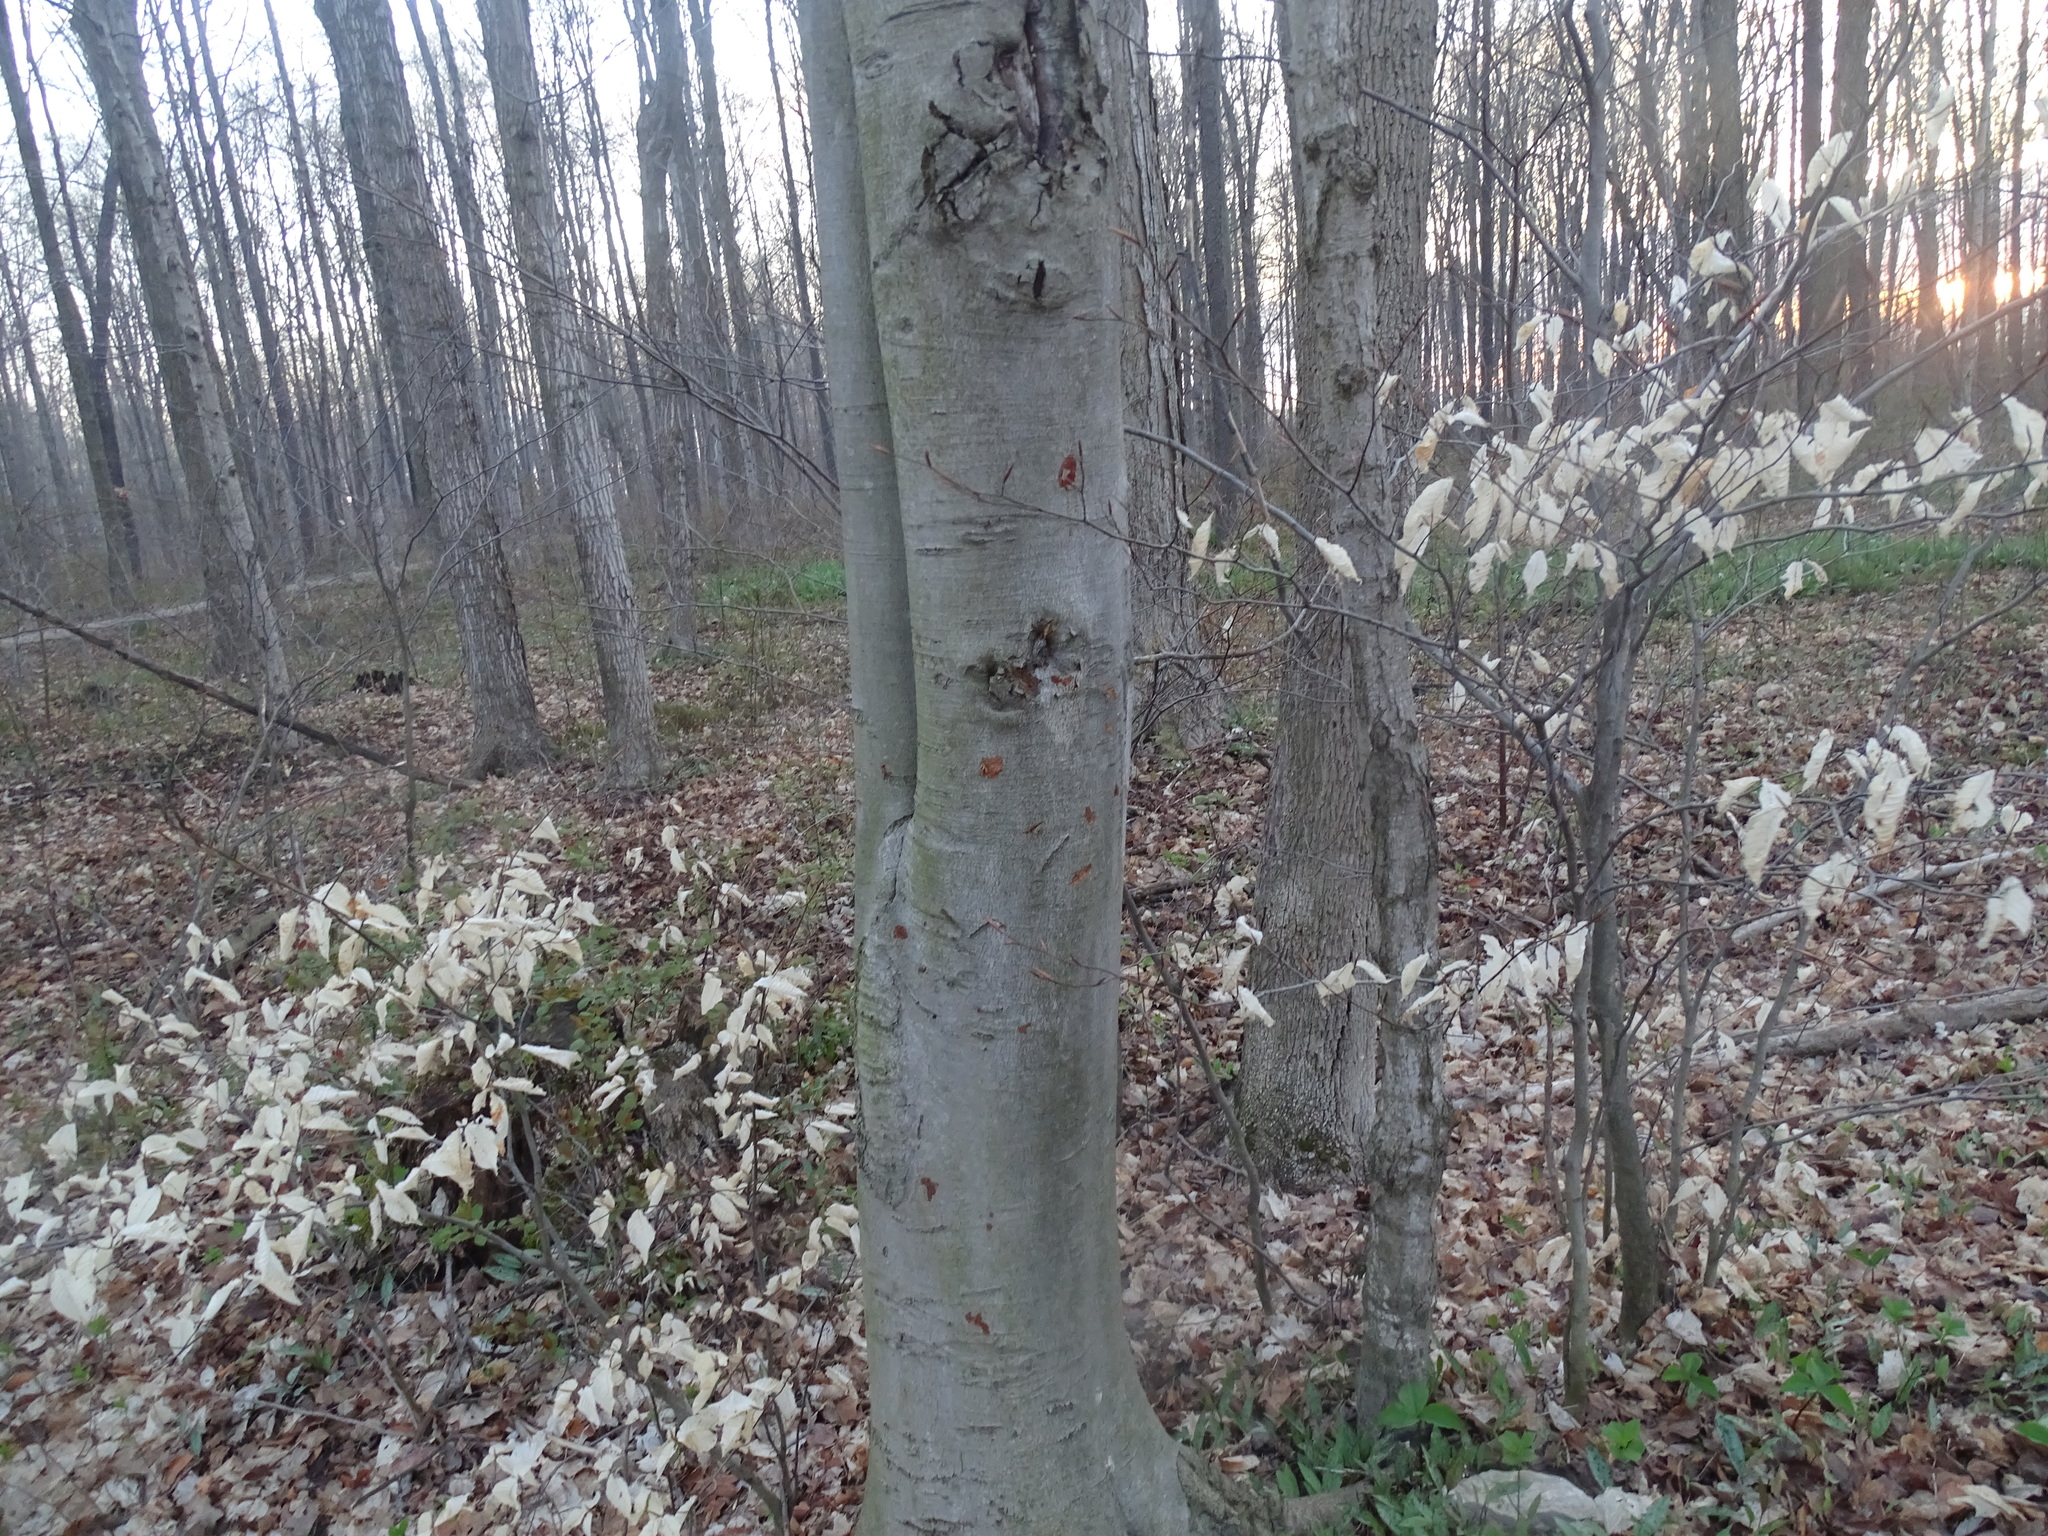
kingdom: Plantae
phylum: Tracheophyta
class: Magnoliopsida
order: Fagales
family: Fagaceae
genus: Fagus
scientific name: Fagus grandifolia
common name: American beech
